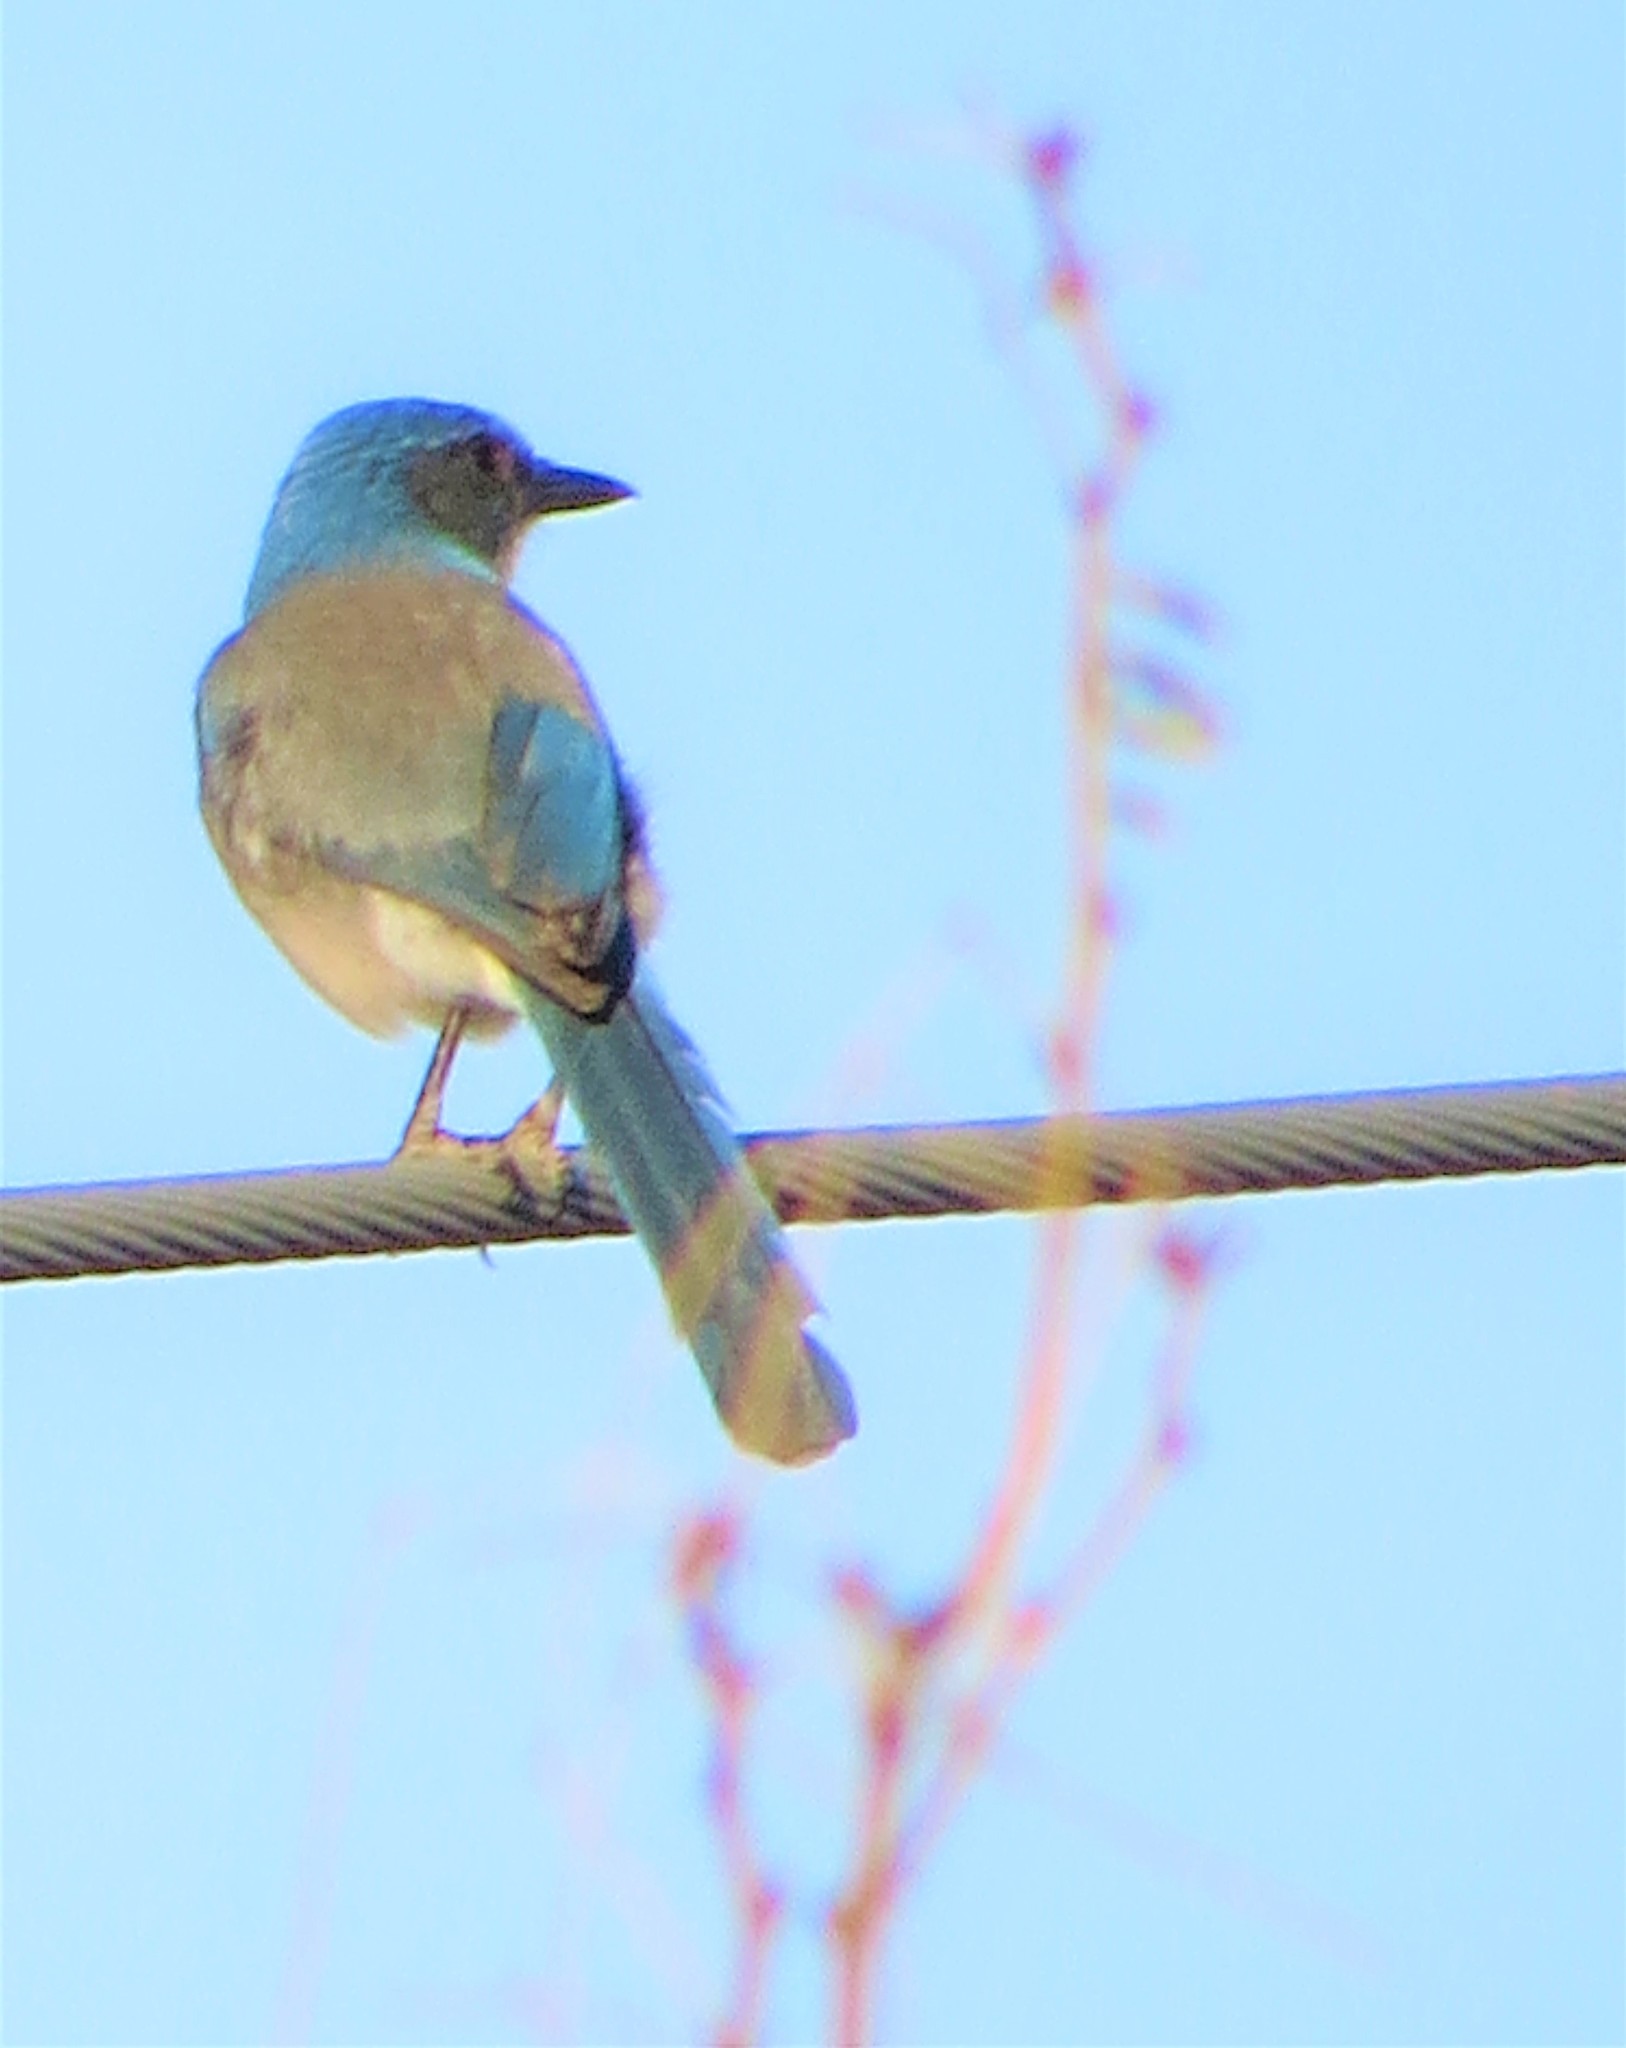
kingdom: Animalia
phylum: Chordata
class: Aves
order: Passeriformes
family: Corvidae
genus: Aphelocoma
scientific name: Aphelocoma woodhouseii
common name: Woodhouse's scrub-jay
